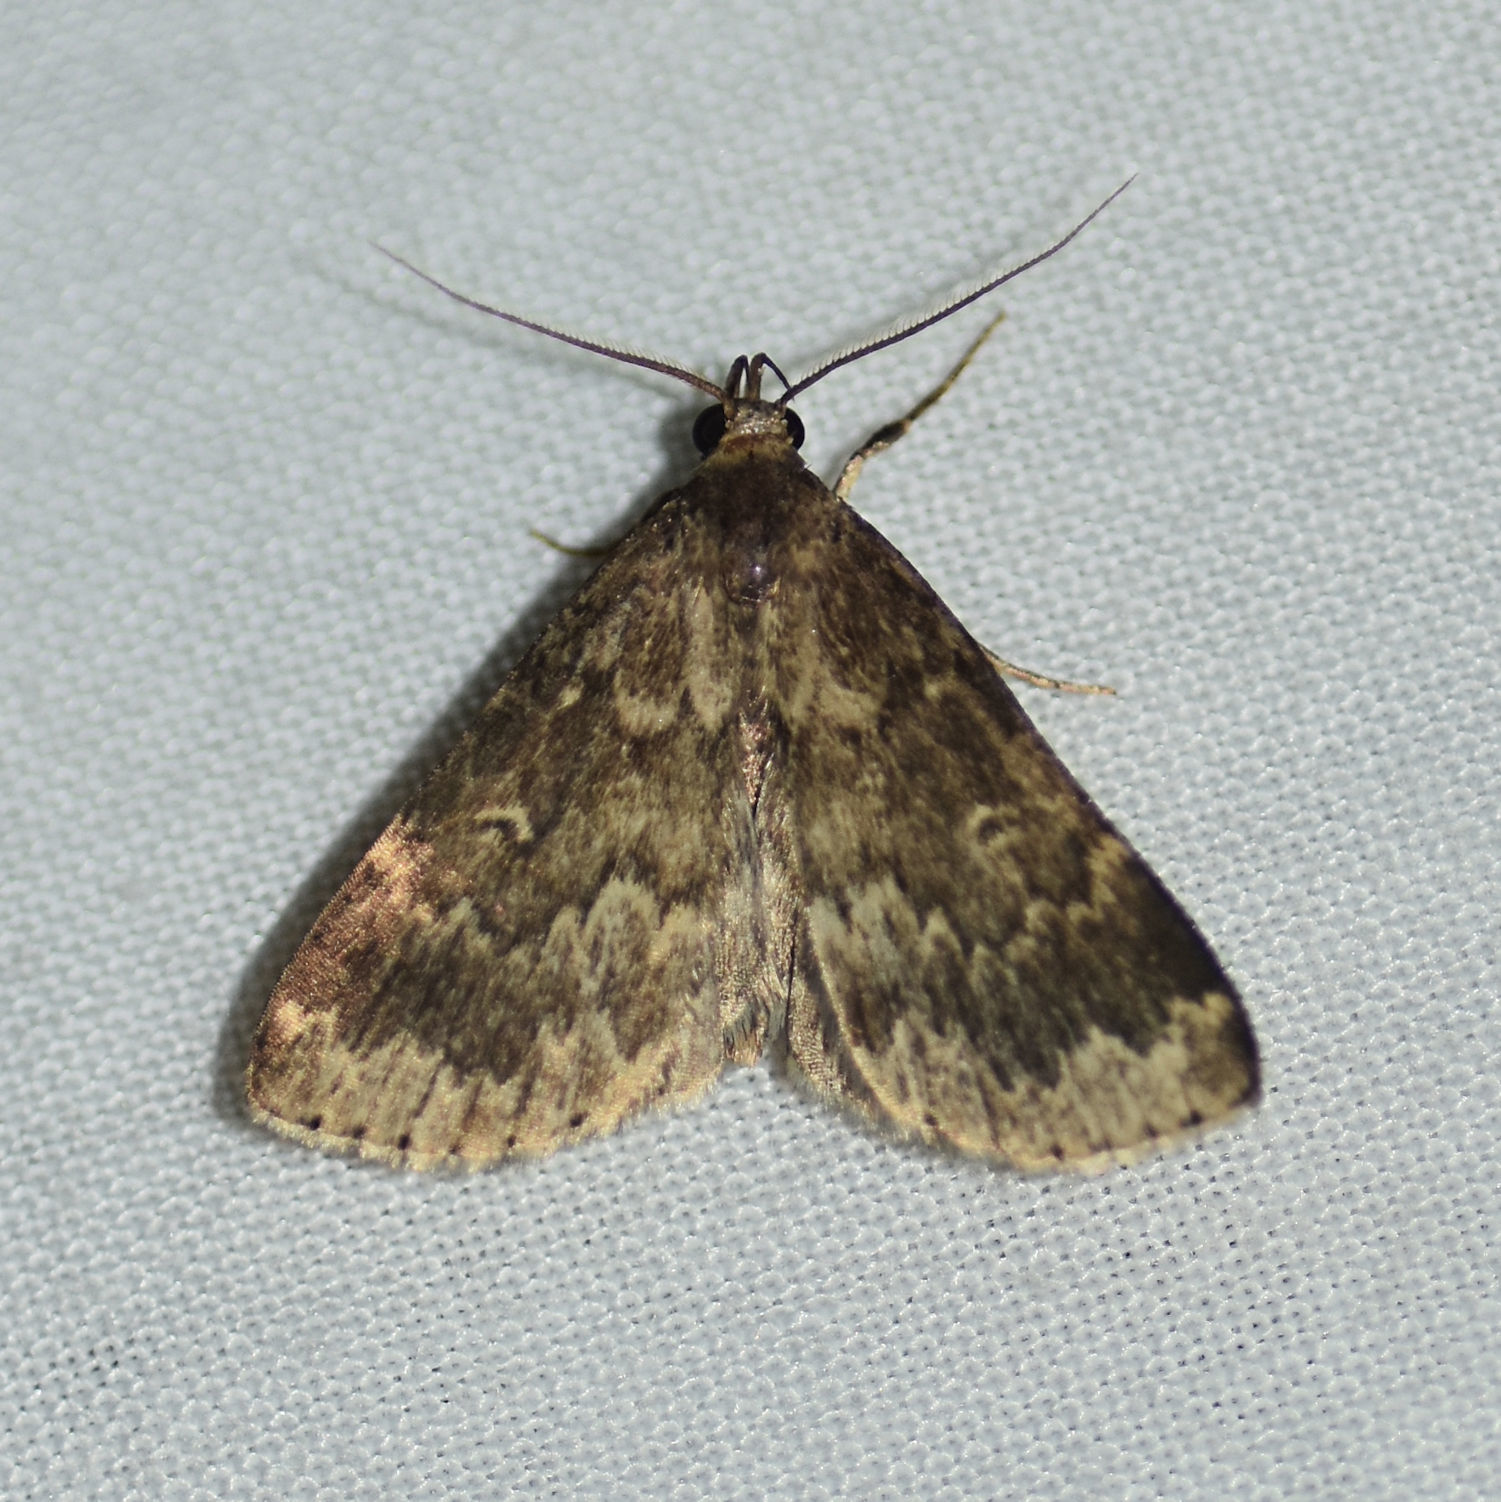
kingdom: Animalia
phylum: Arthropoda
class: Insecta
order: Lepidoptera
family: Erebidae
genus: Idia
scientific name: Idia lubricalis
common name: Twin-striped tabby
